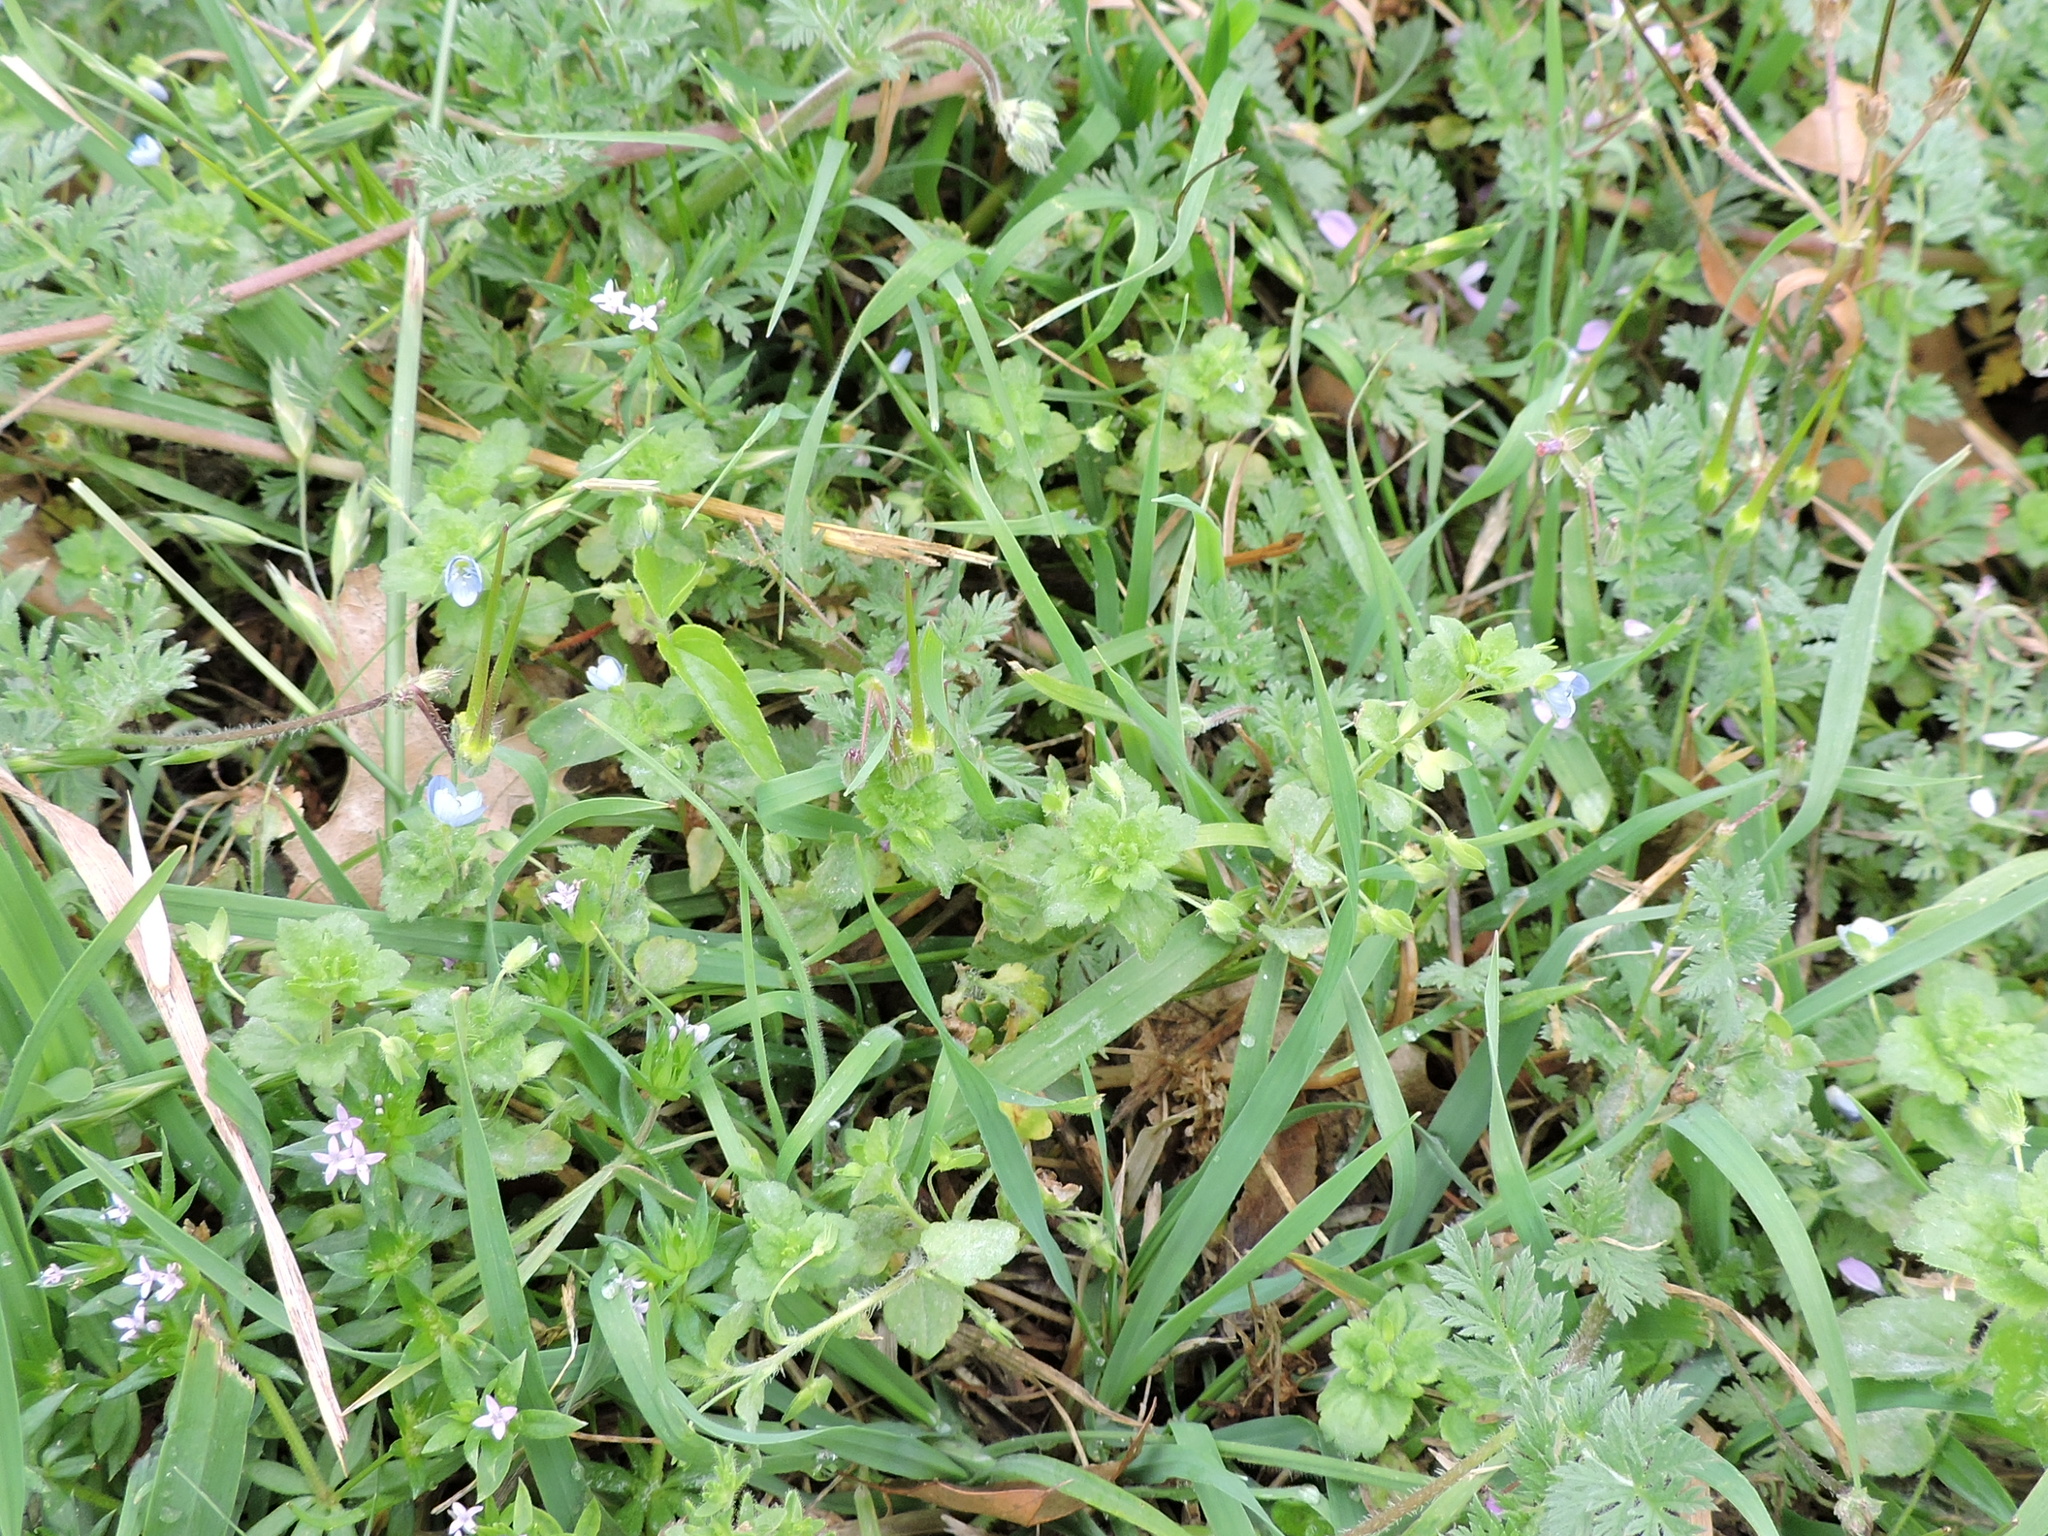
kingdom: Plantae
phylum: Tracheophyta
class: Magnoliopsida
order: Lamiales
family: Plantaginaceae
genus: Veronica
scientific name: Veronica persica
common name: Common field-speedwell
